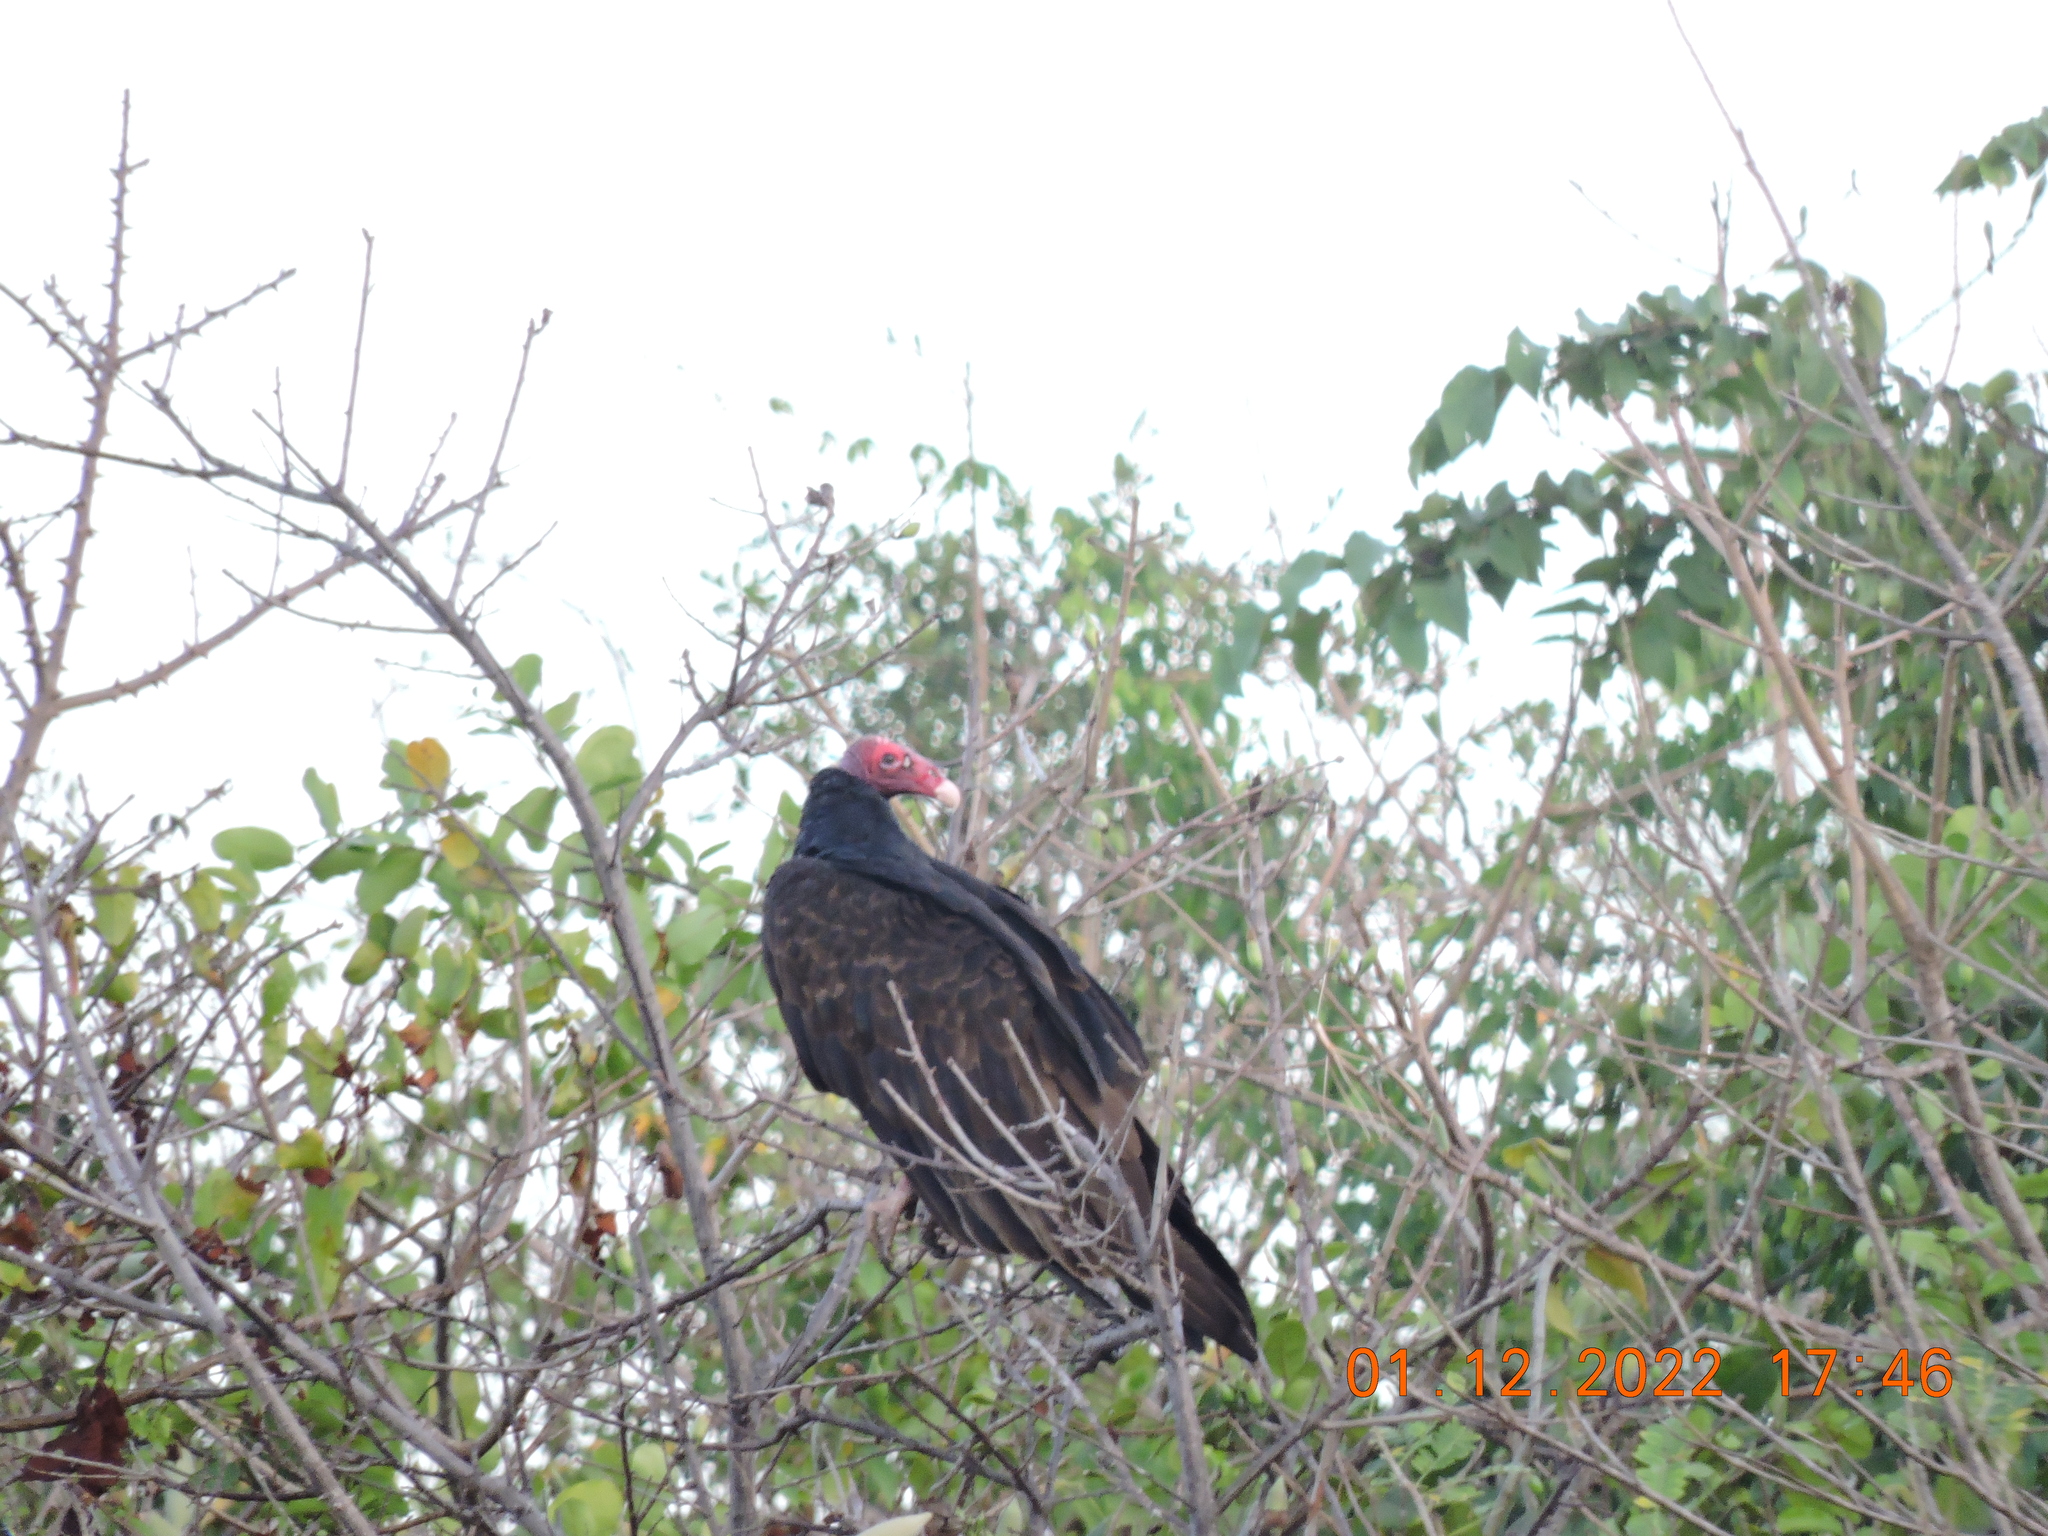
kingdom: Animalia
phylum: Chordata
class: Aves
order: Accipitriformes
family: Cathartidae
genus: Cathartes
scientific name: Cathartes aura
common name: Turkey vulture
